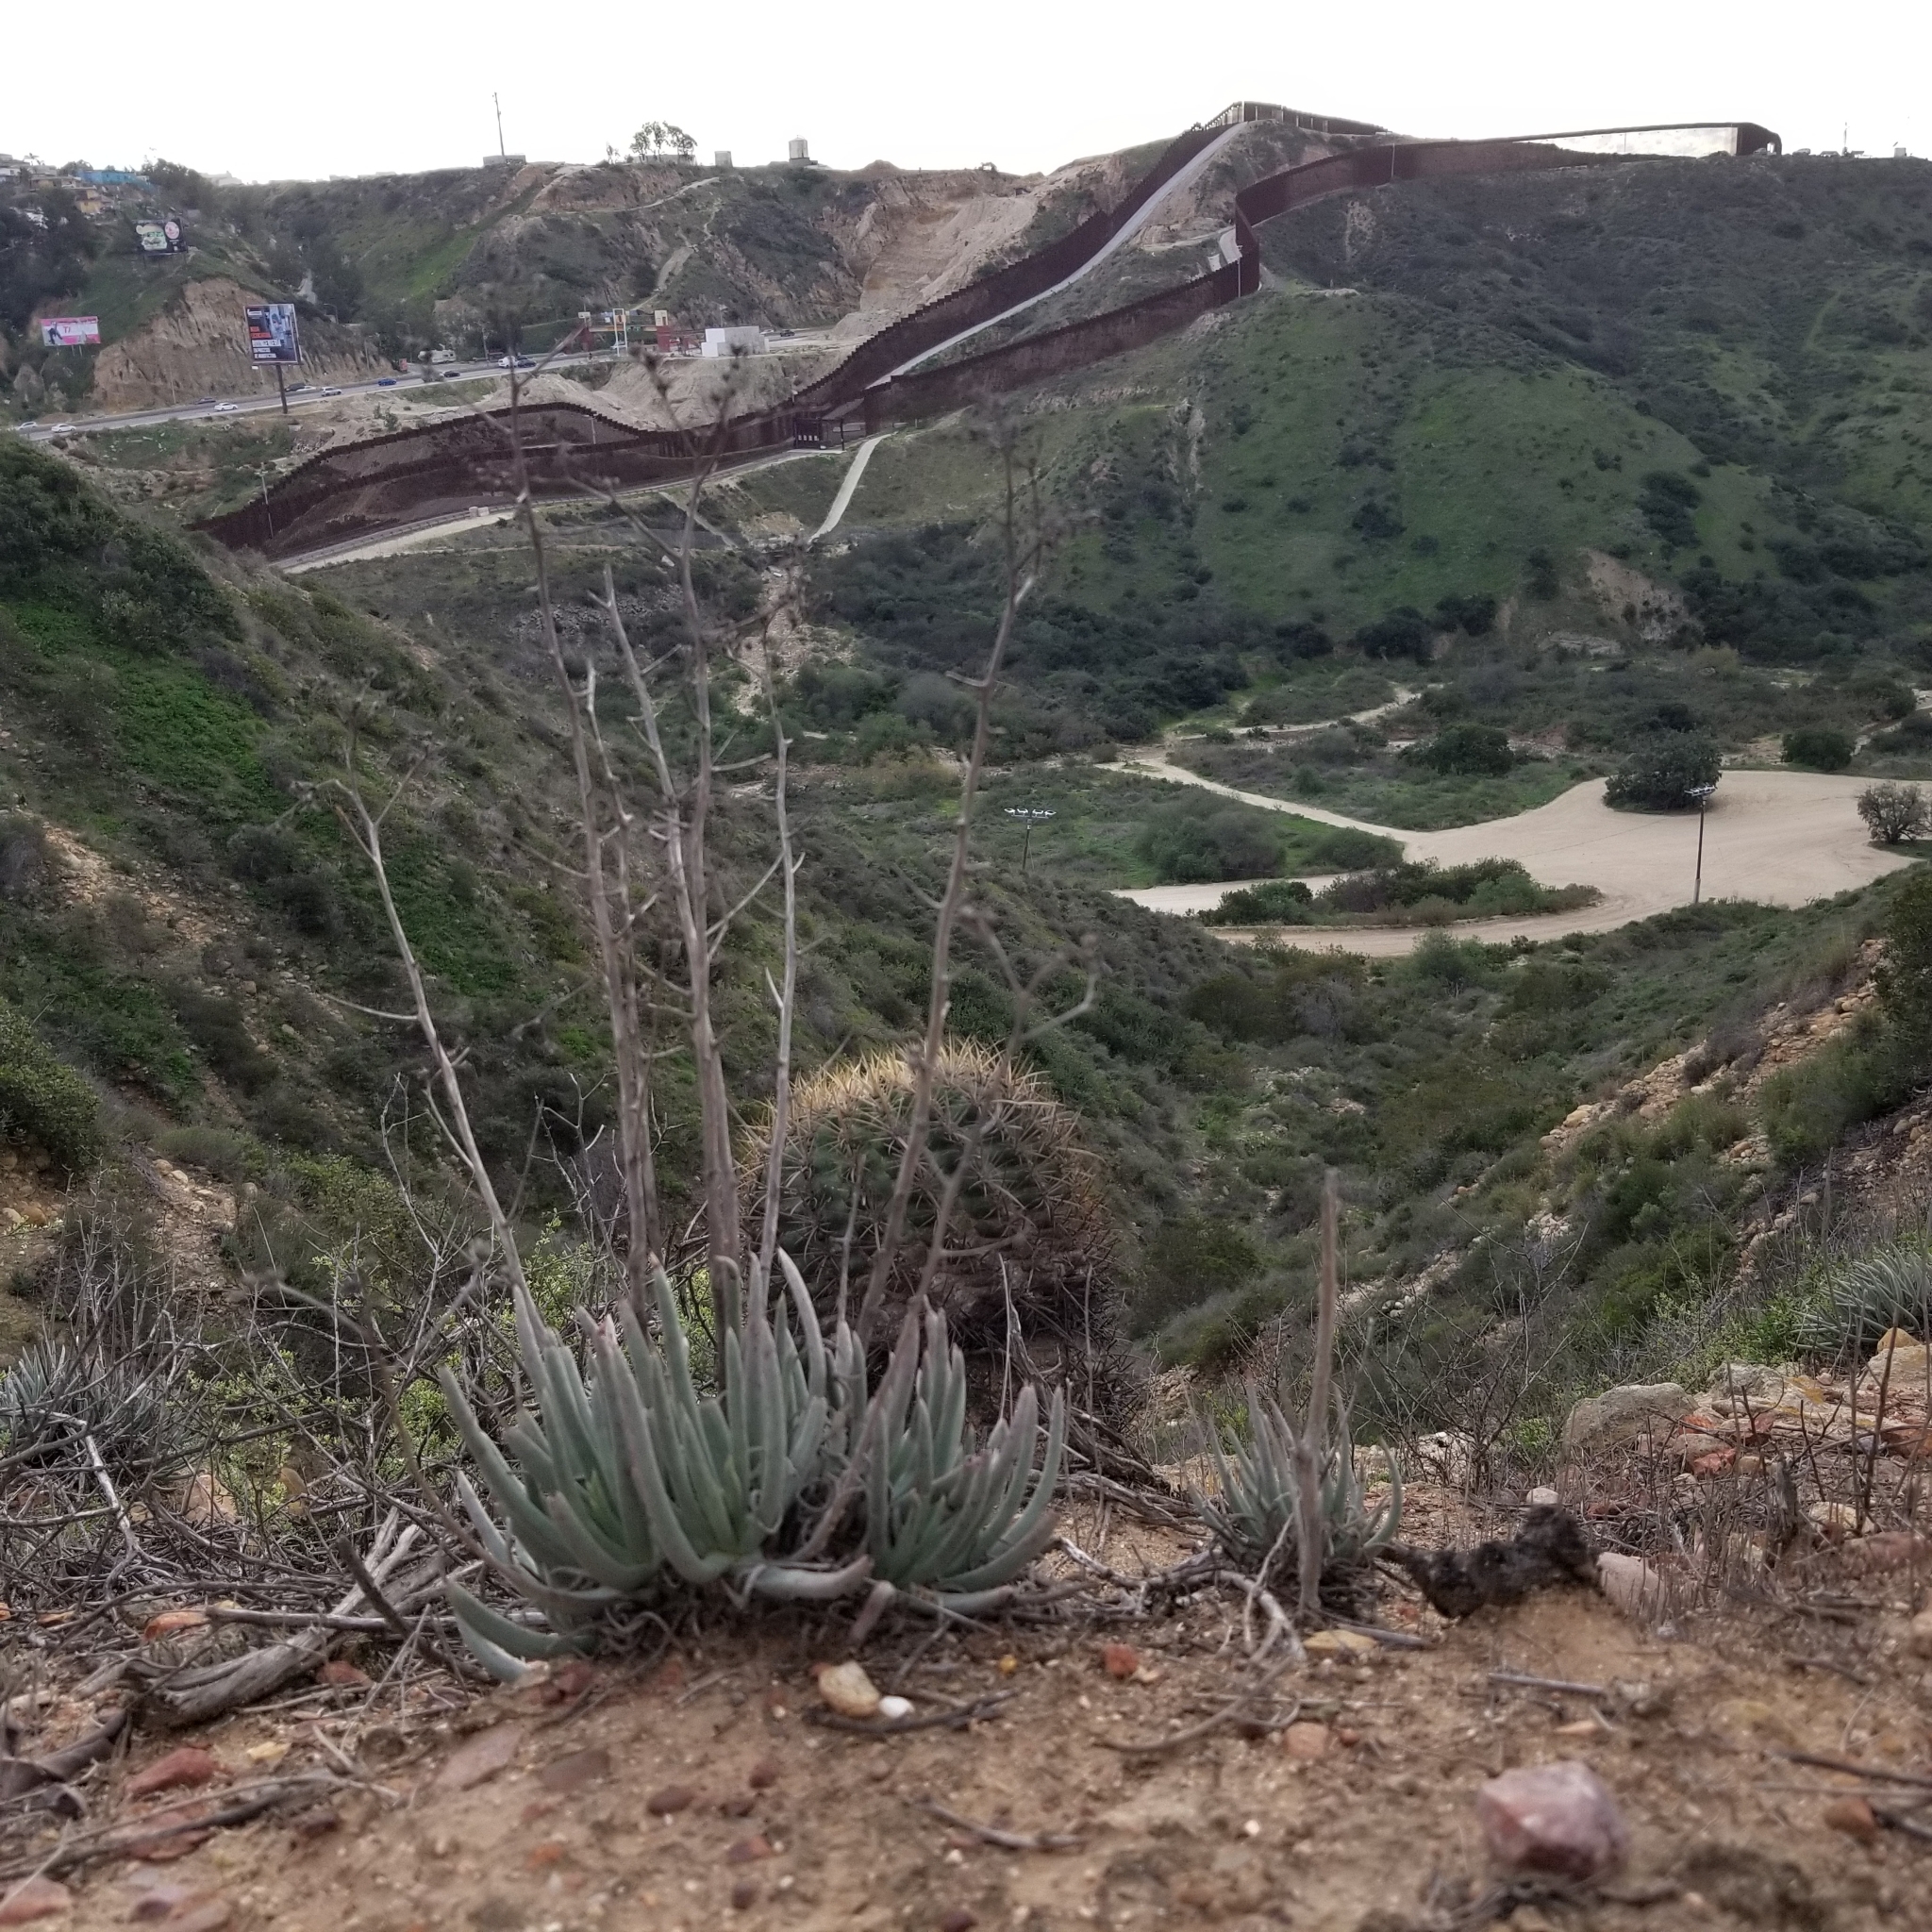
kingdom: Plantae
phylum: Tracheophyta
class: Magnoliopsida
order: Saxifragales
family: Crassulaceae
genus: Dudleya
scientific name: Dudleya edulis
